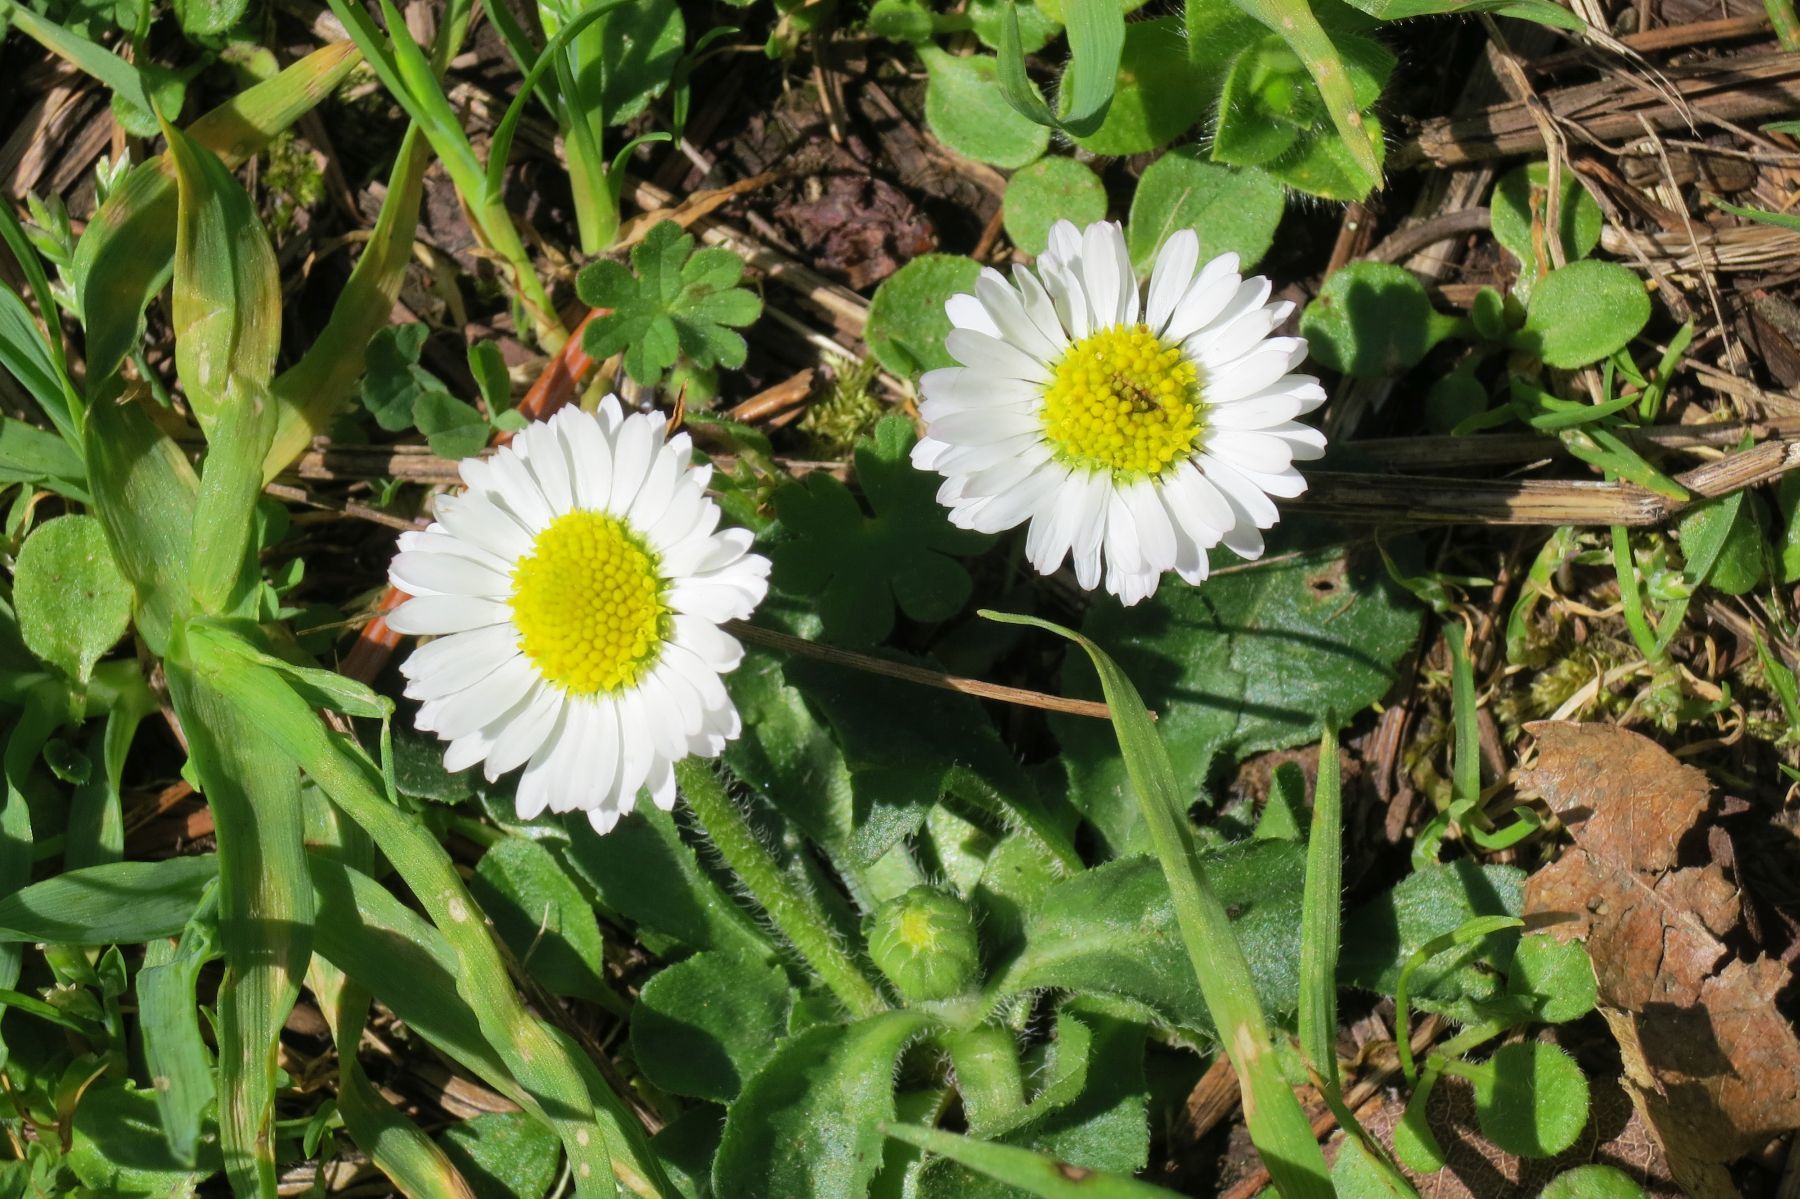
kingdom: Plantae
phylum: Tracheophyta
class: Magnoliopsida
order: Asterales
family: Asteraceae
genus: Bellis
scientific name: Bellis perennis
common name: Lawndaisy
